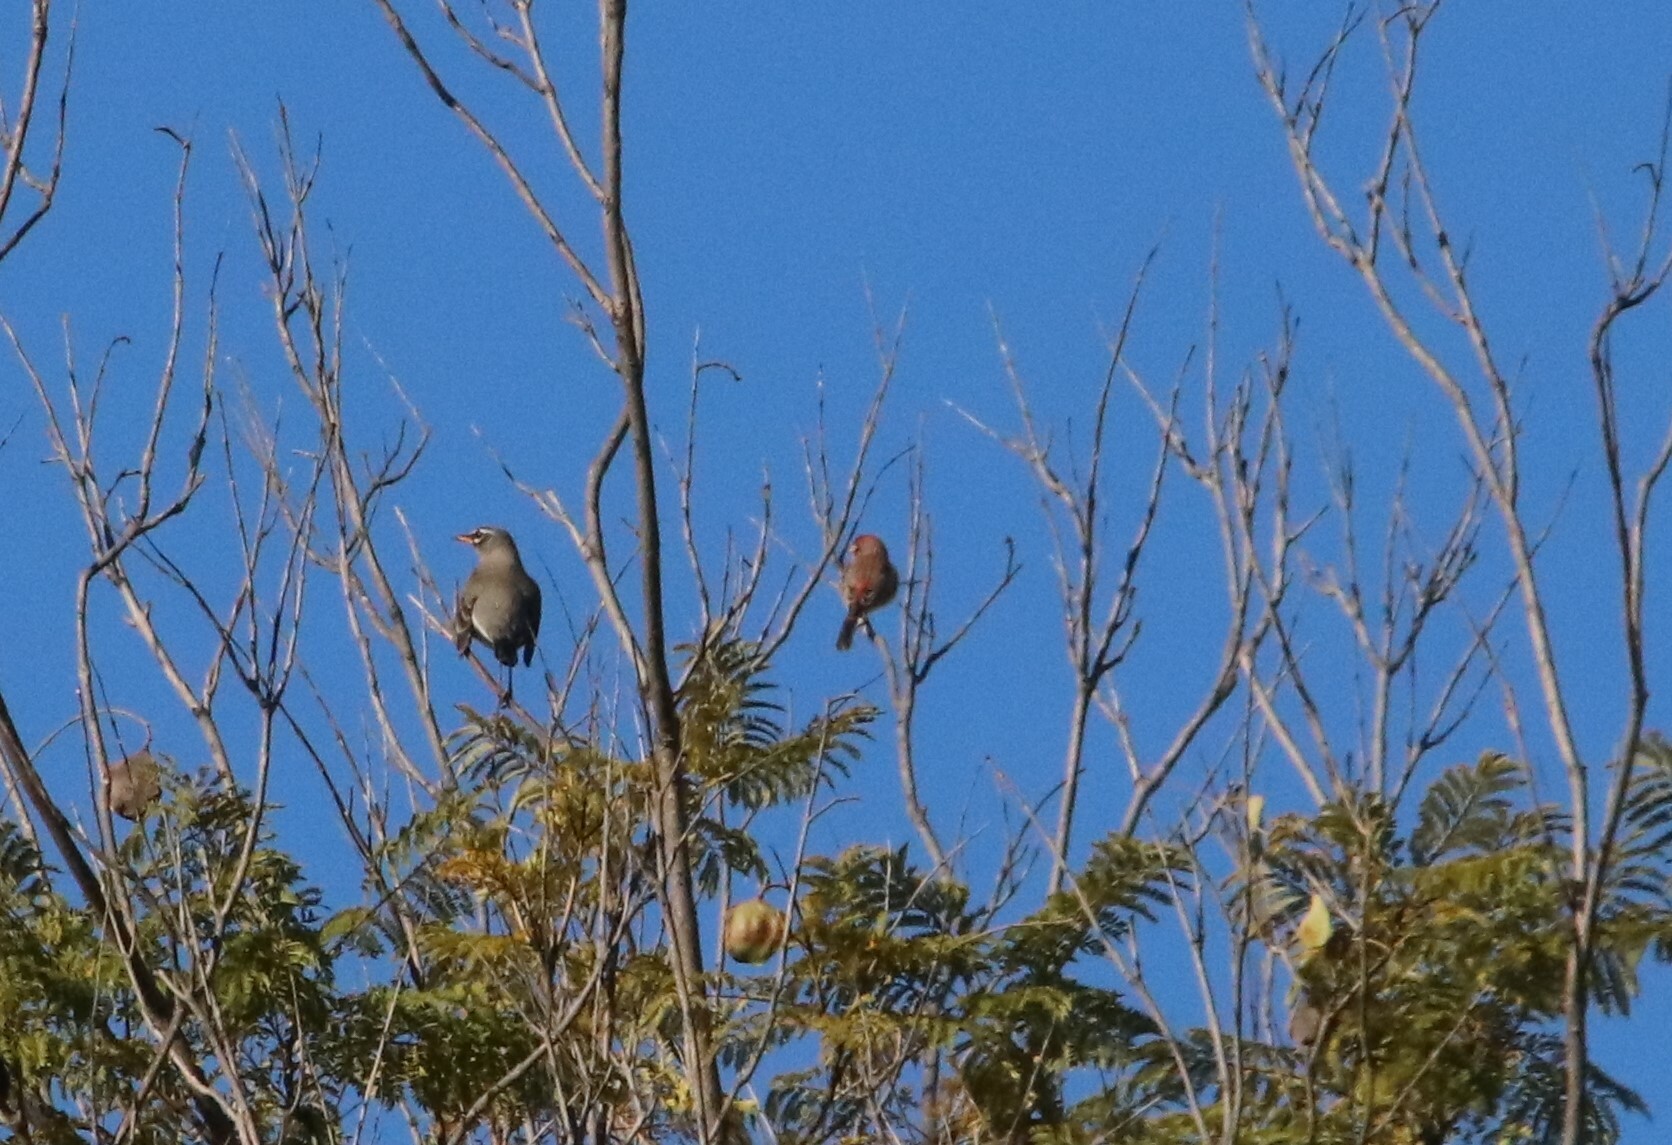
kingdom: Animalia
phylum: Chordata
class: Aves
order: Passeriformes
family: Fringillidae
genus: Haemorhous
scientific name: Haemorhous mexicanus
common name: House finch
